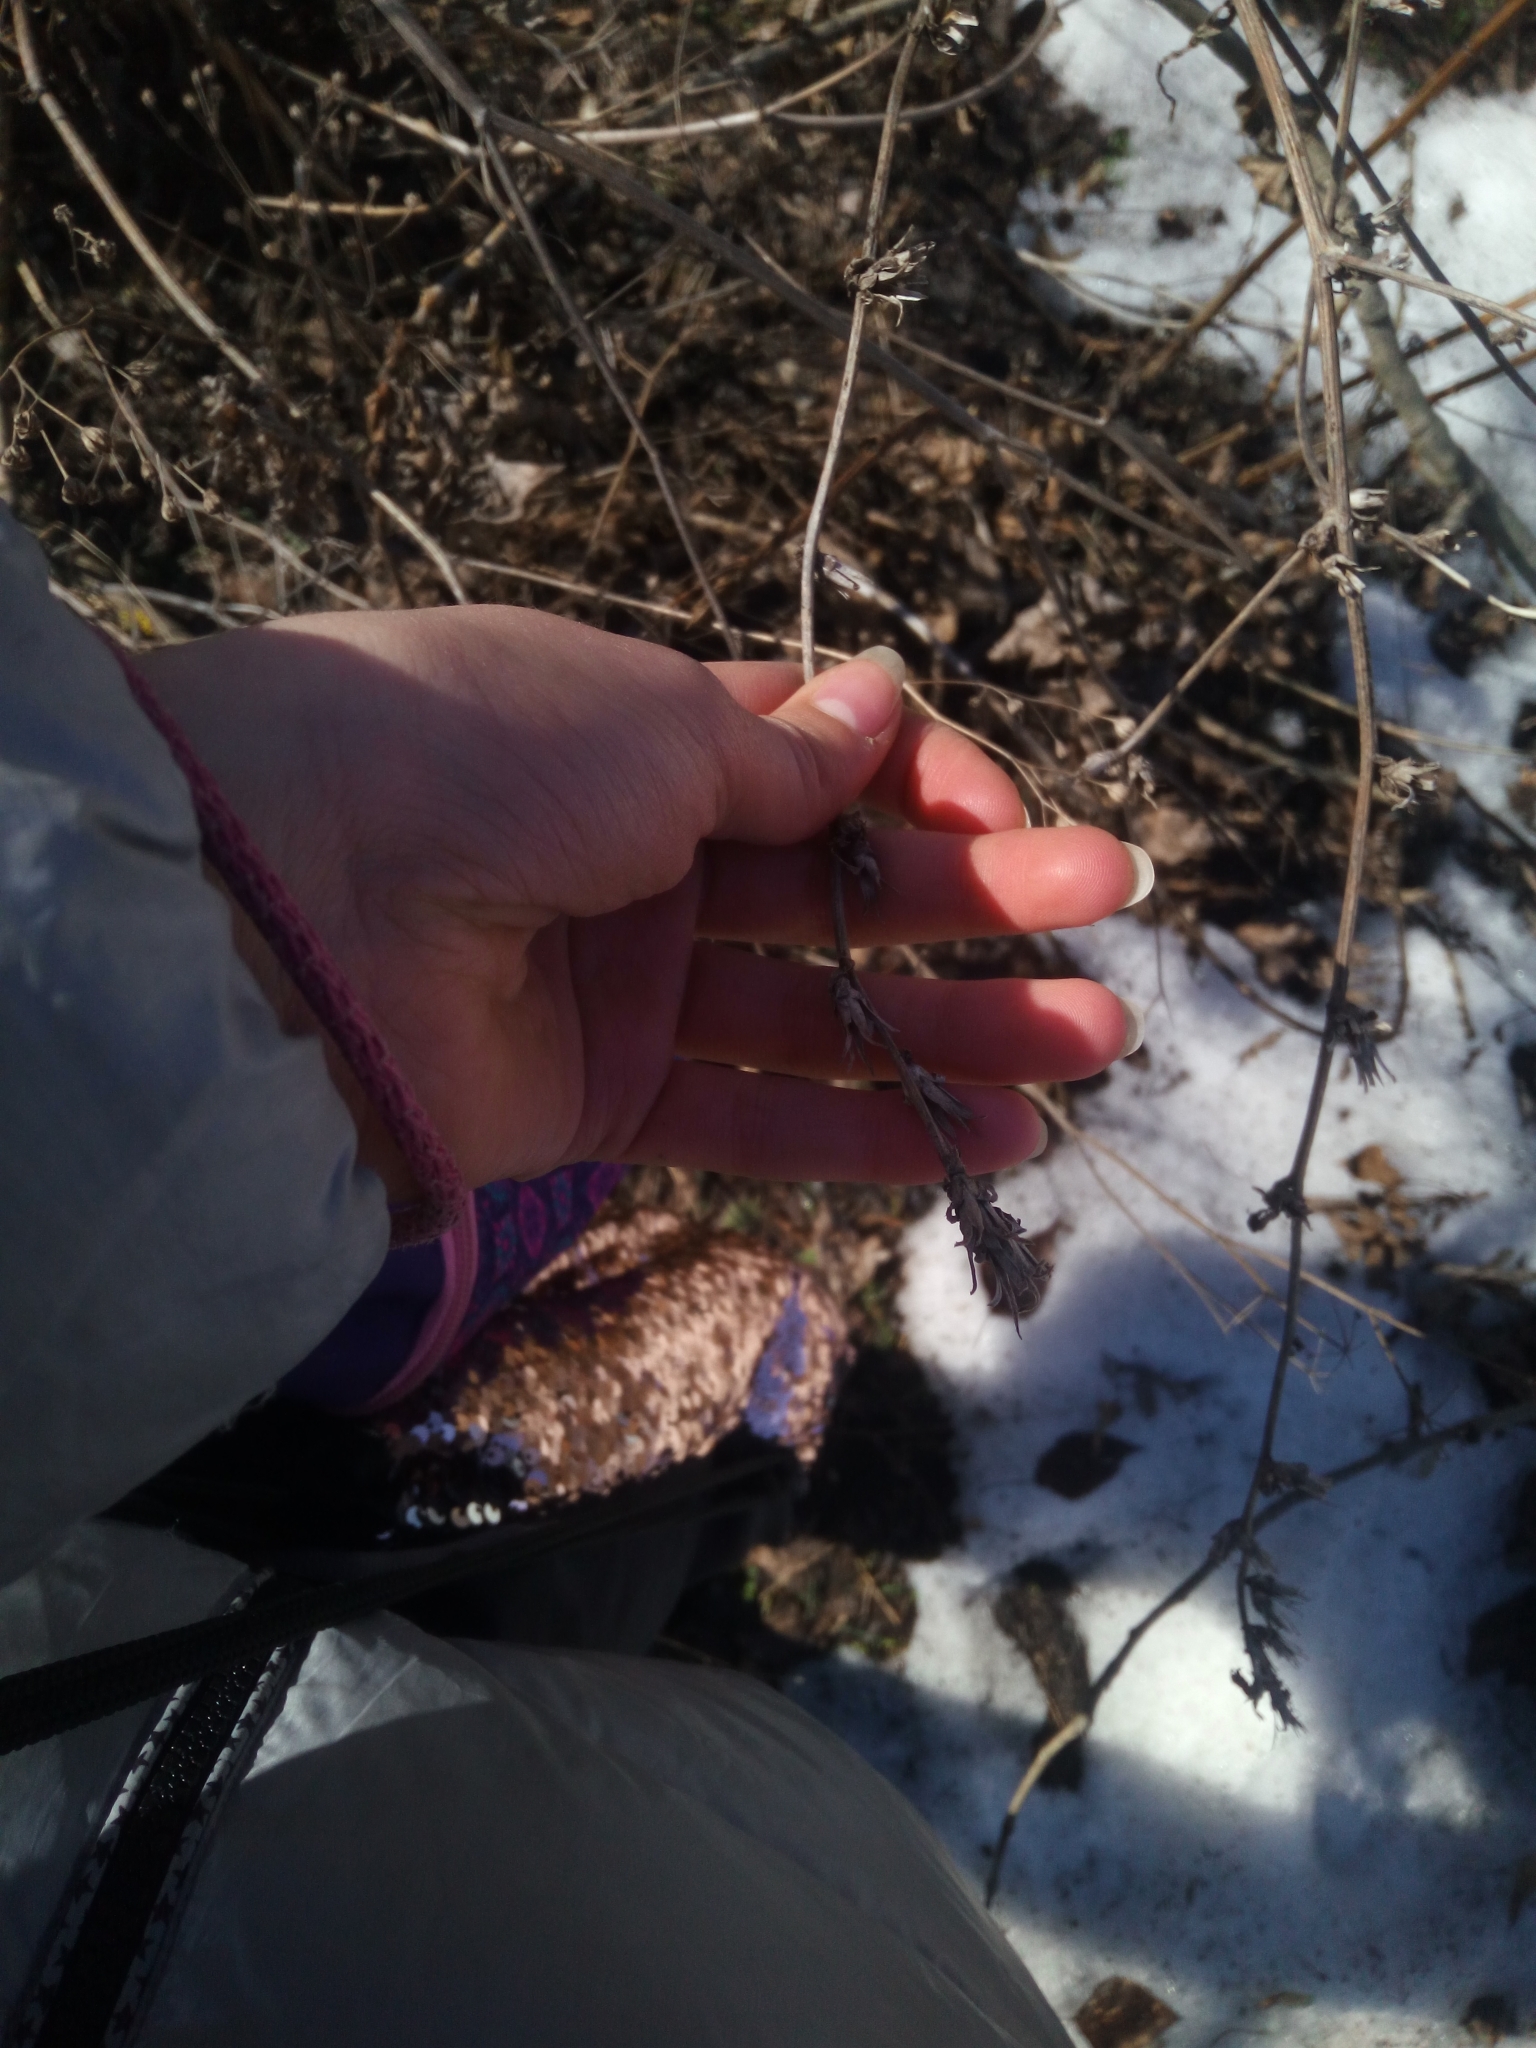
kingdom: Plantae
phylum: Tracheophyta
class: Magnoliopsida
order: Asterales
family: Asteraceae
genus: Cichorium
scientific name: Cichorium intybus
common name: Chicory
